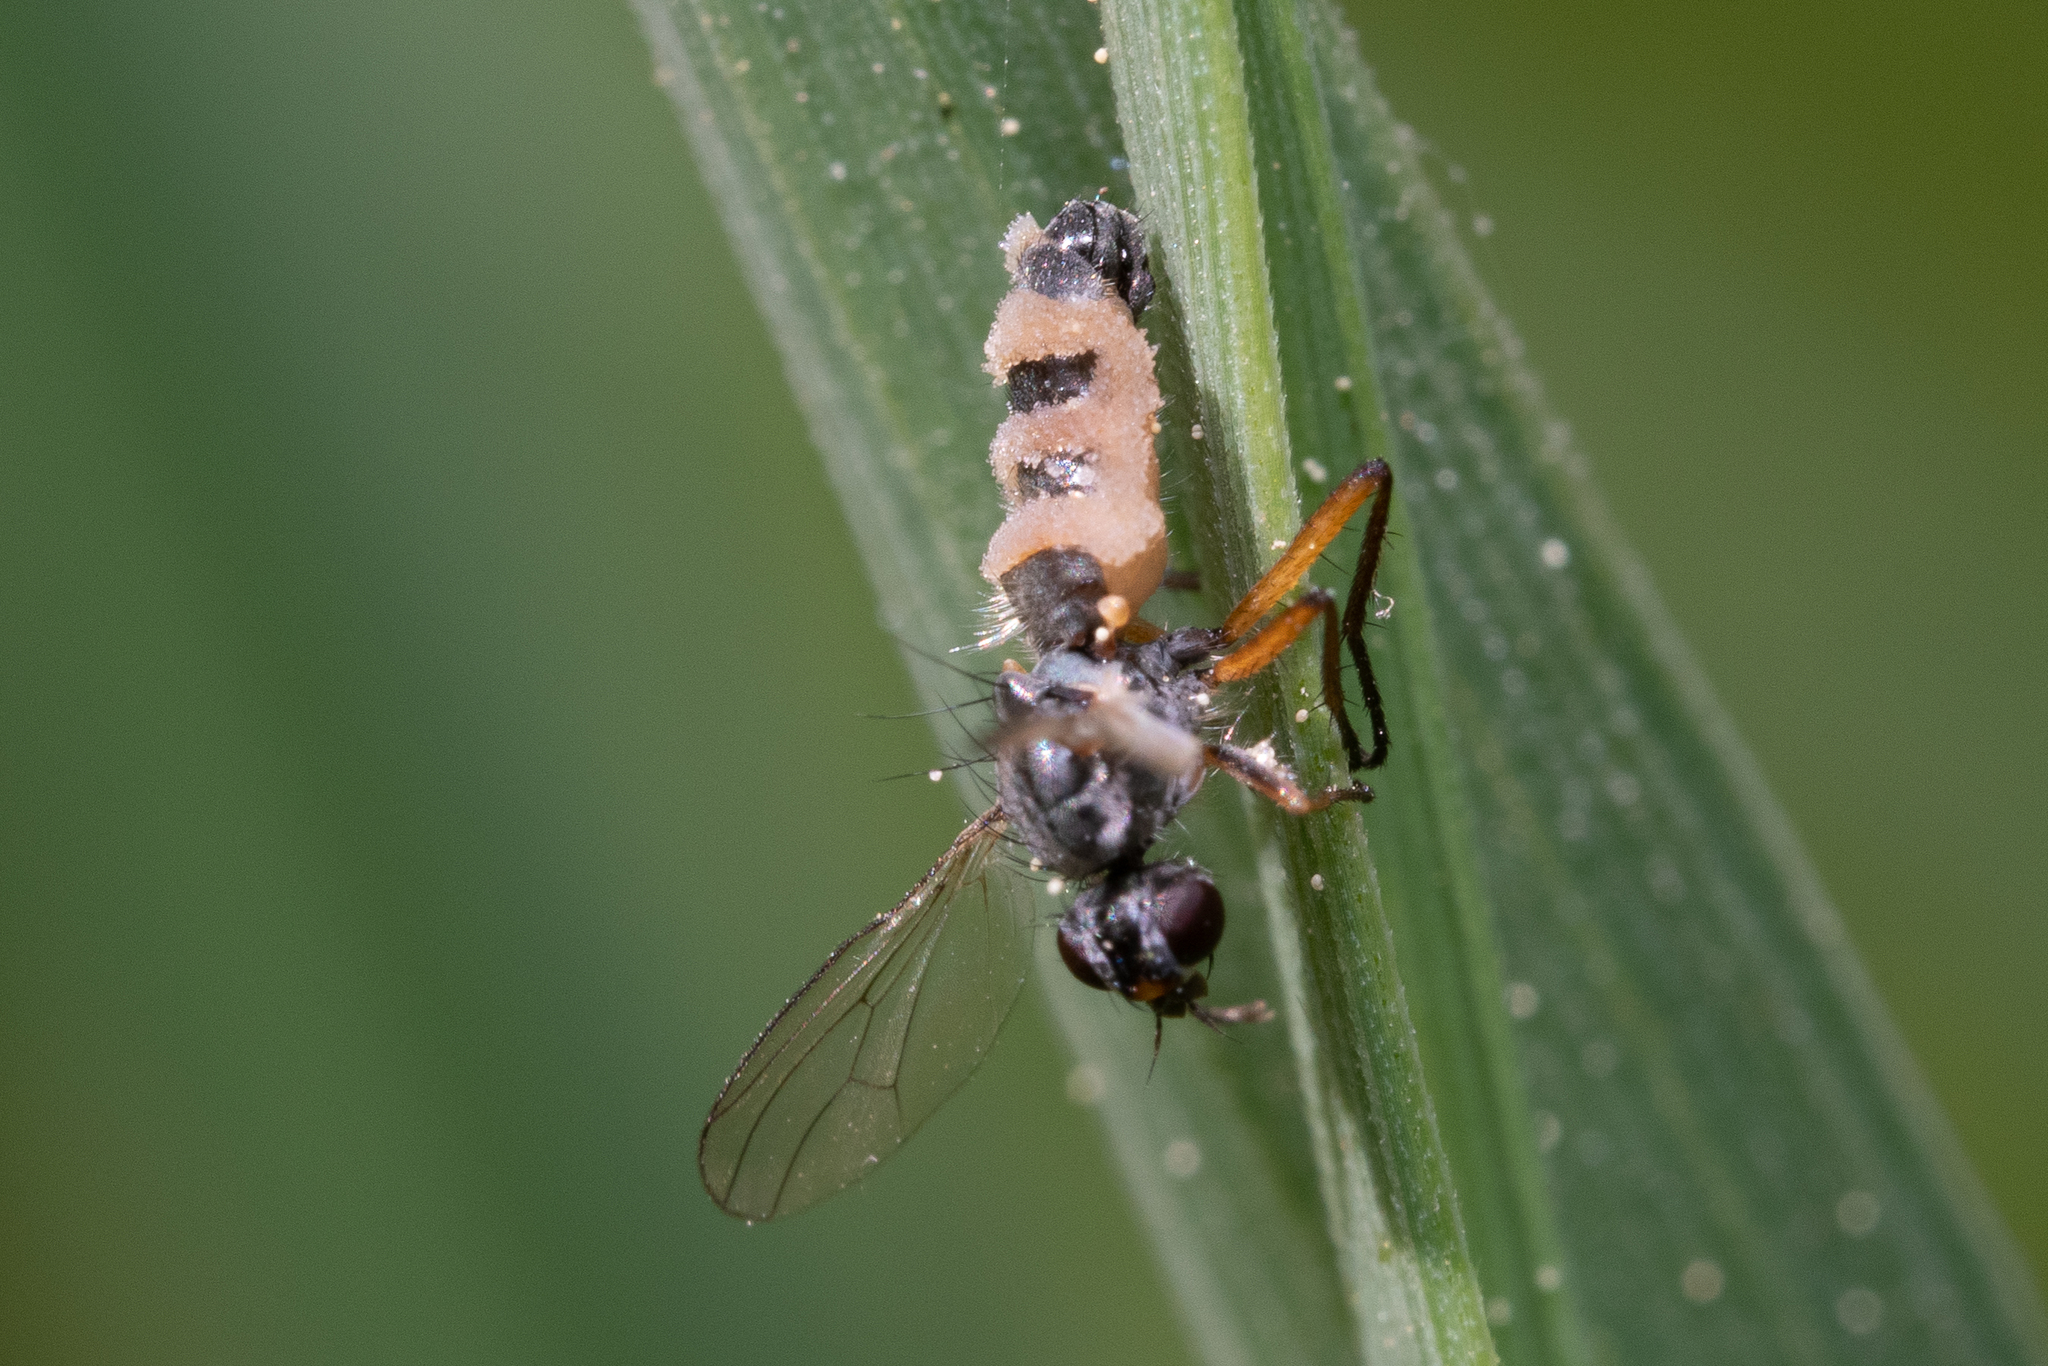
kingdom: Fungi
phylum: Entomophthoromycota
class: Entomophthoromycetes
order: Entomophthorales
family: Entomophthoraceae
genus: Entomophthora
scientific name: Entomophthora
